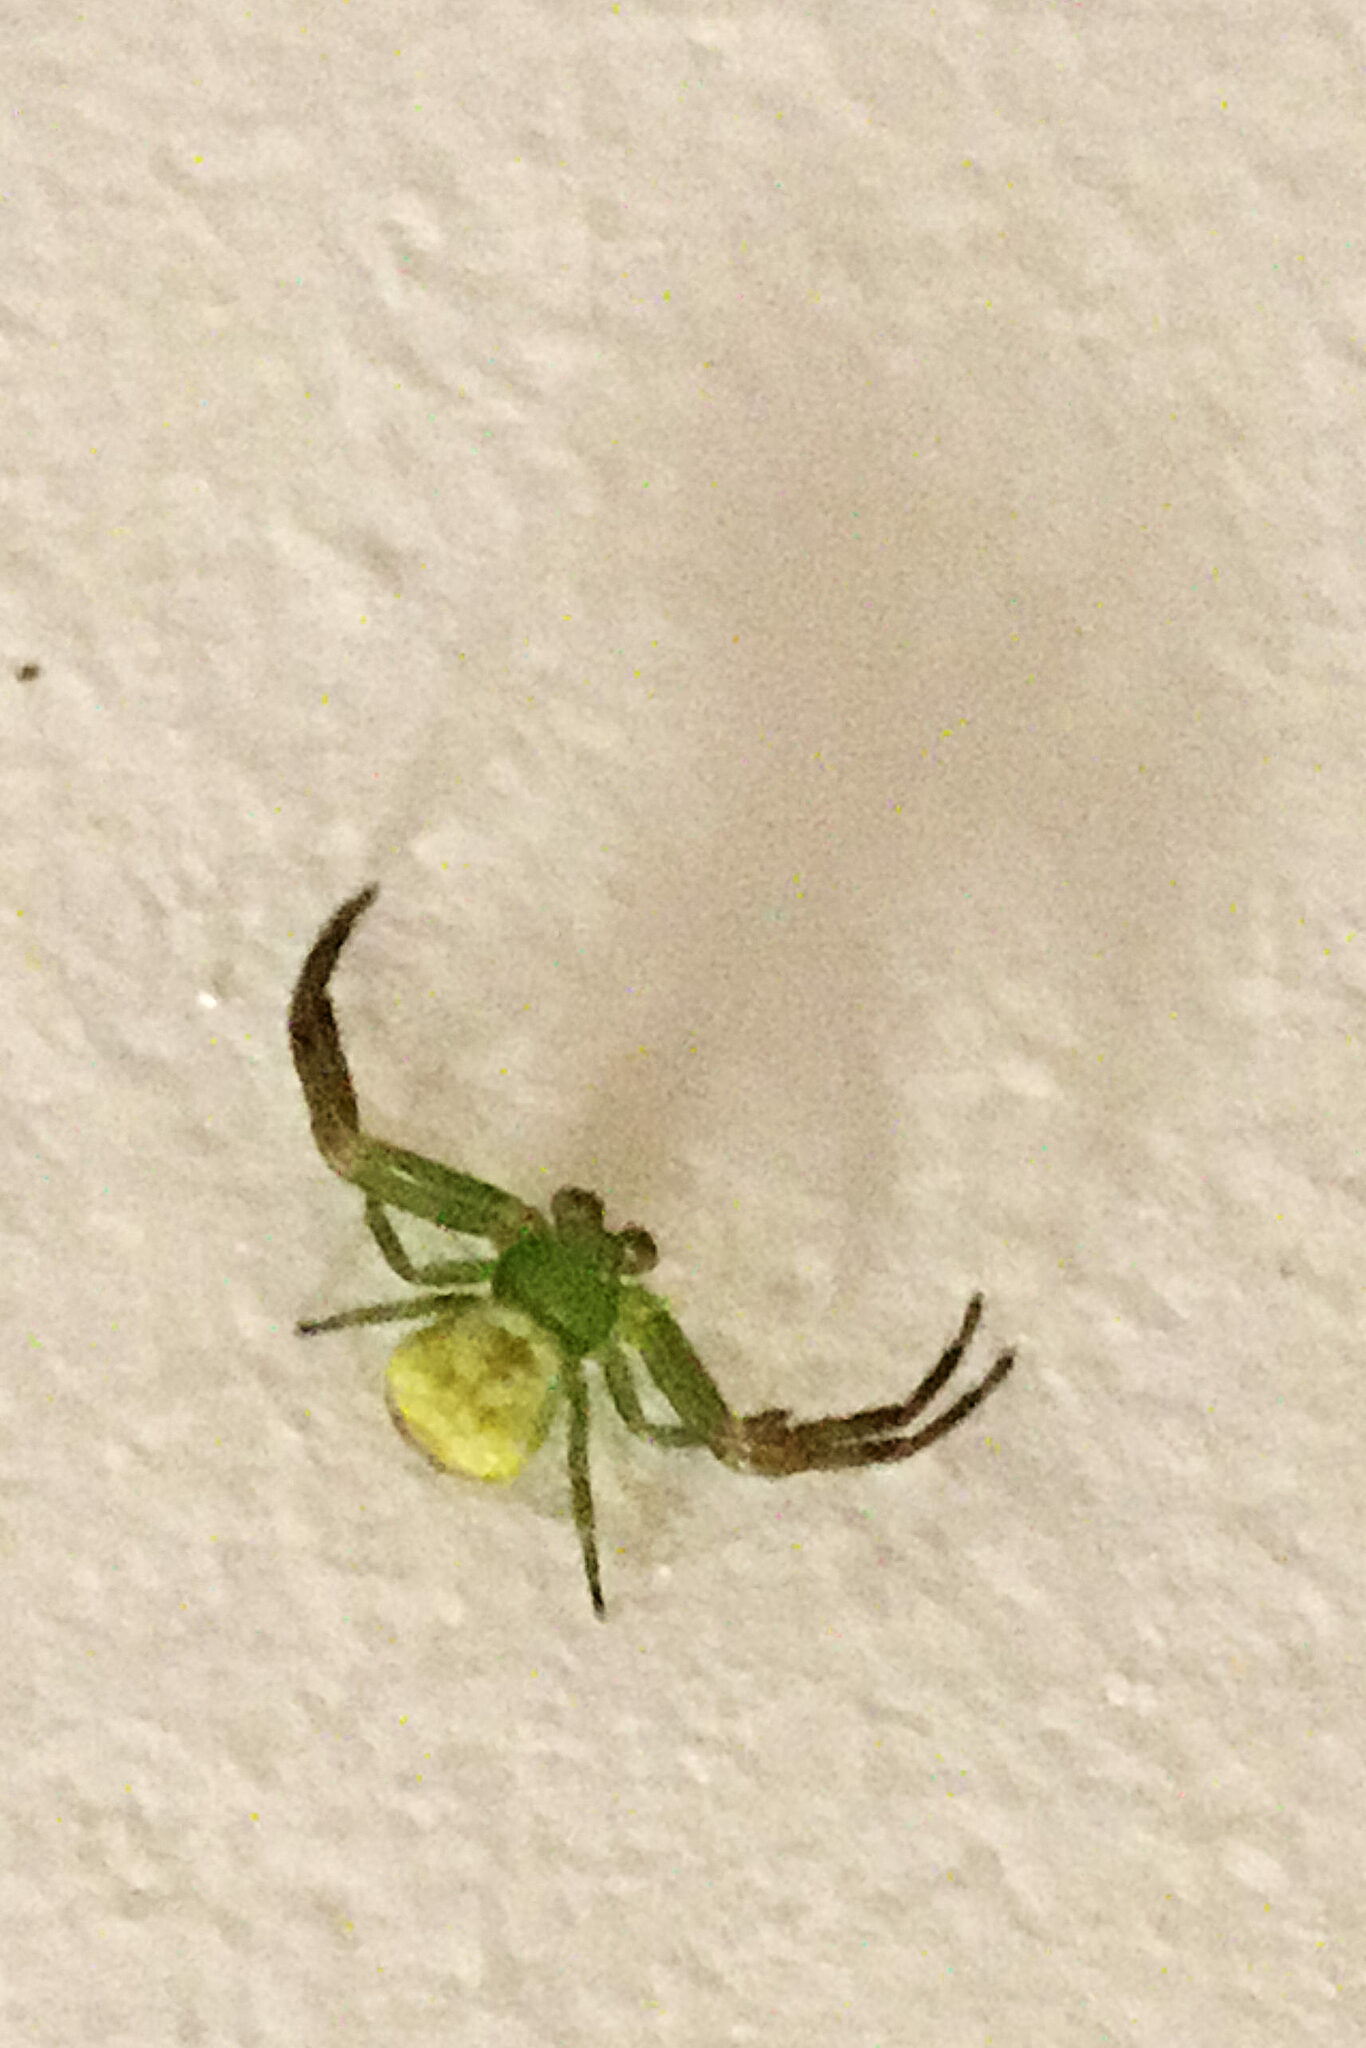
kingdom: Animalia
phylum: Arthropoda
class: Arachnida
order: Araneae
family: Thomisidae
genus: Ebrechtella
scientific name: Ebrechtella tricuspidata
